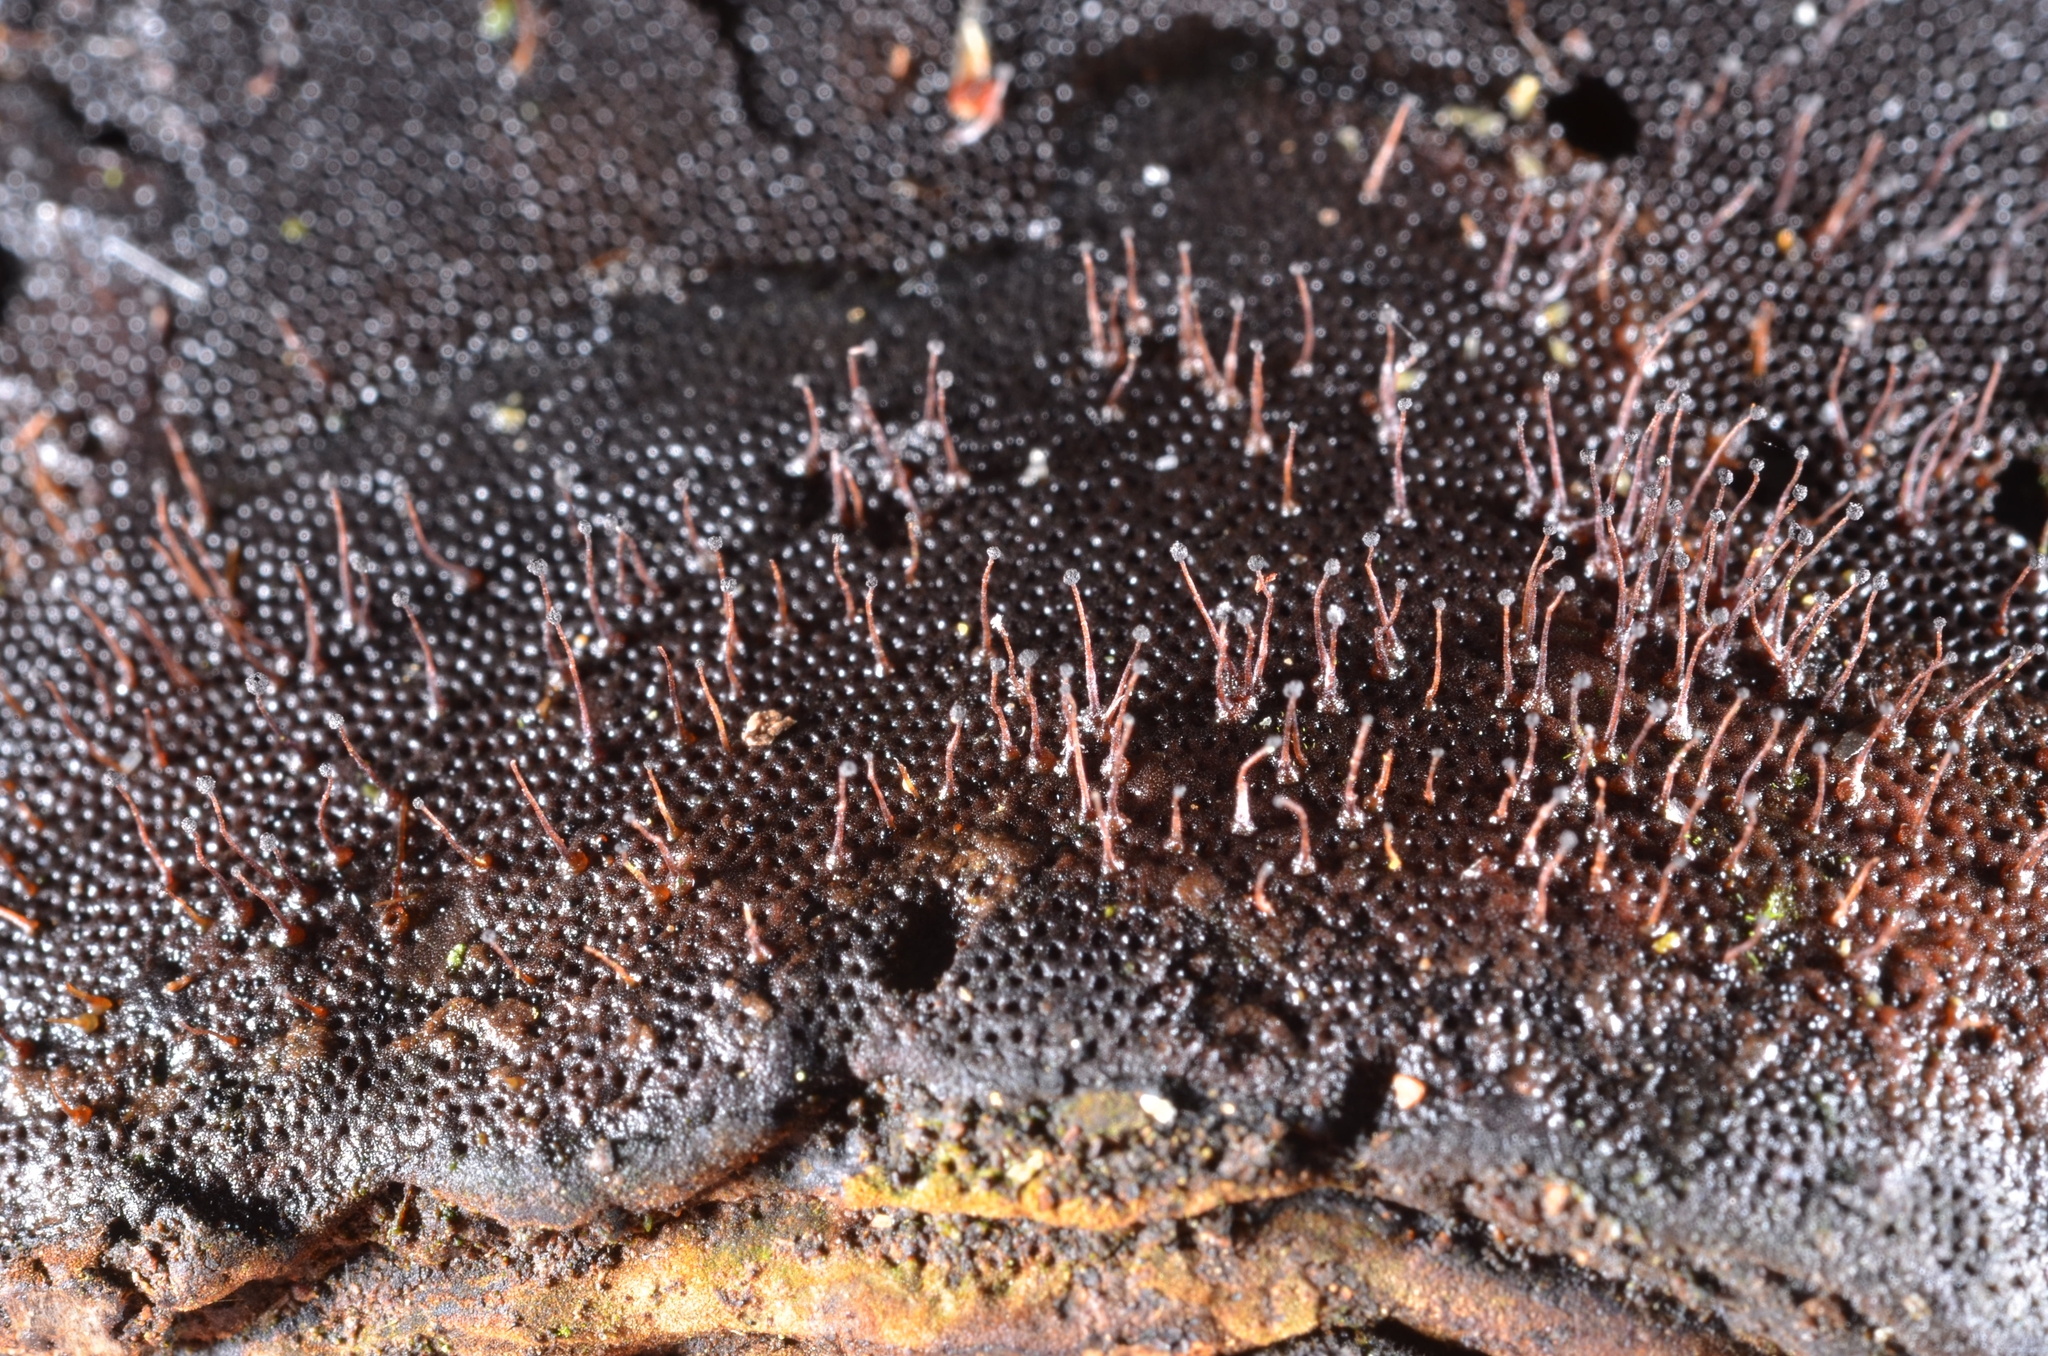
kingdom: Fungi
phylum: Ascomycota
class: Sordariomycetes
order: Melanosporales
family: Ceratostomataceae
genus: Melanospora
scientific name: Melanospora lagenaria
